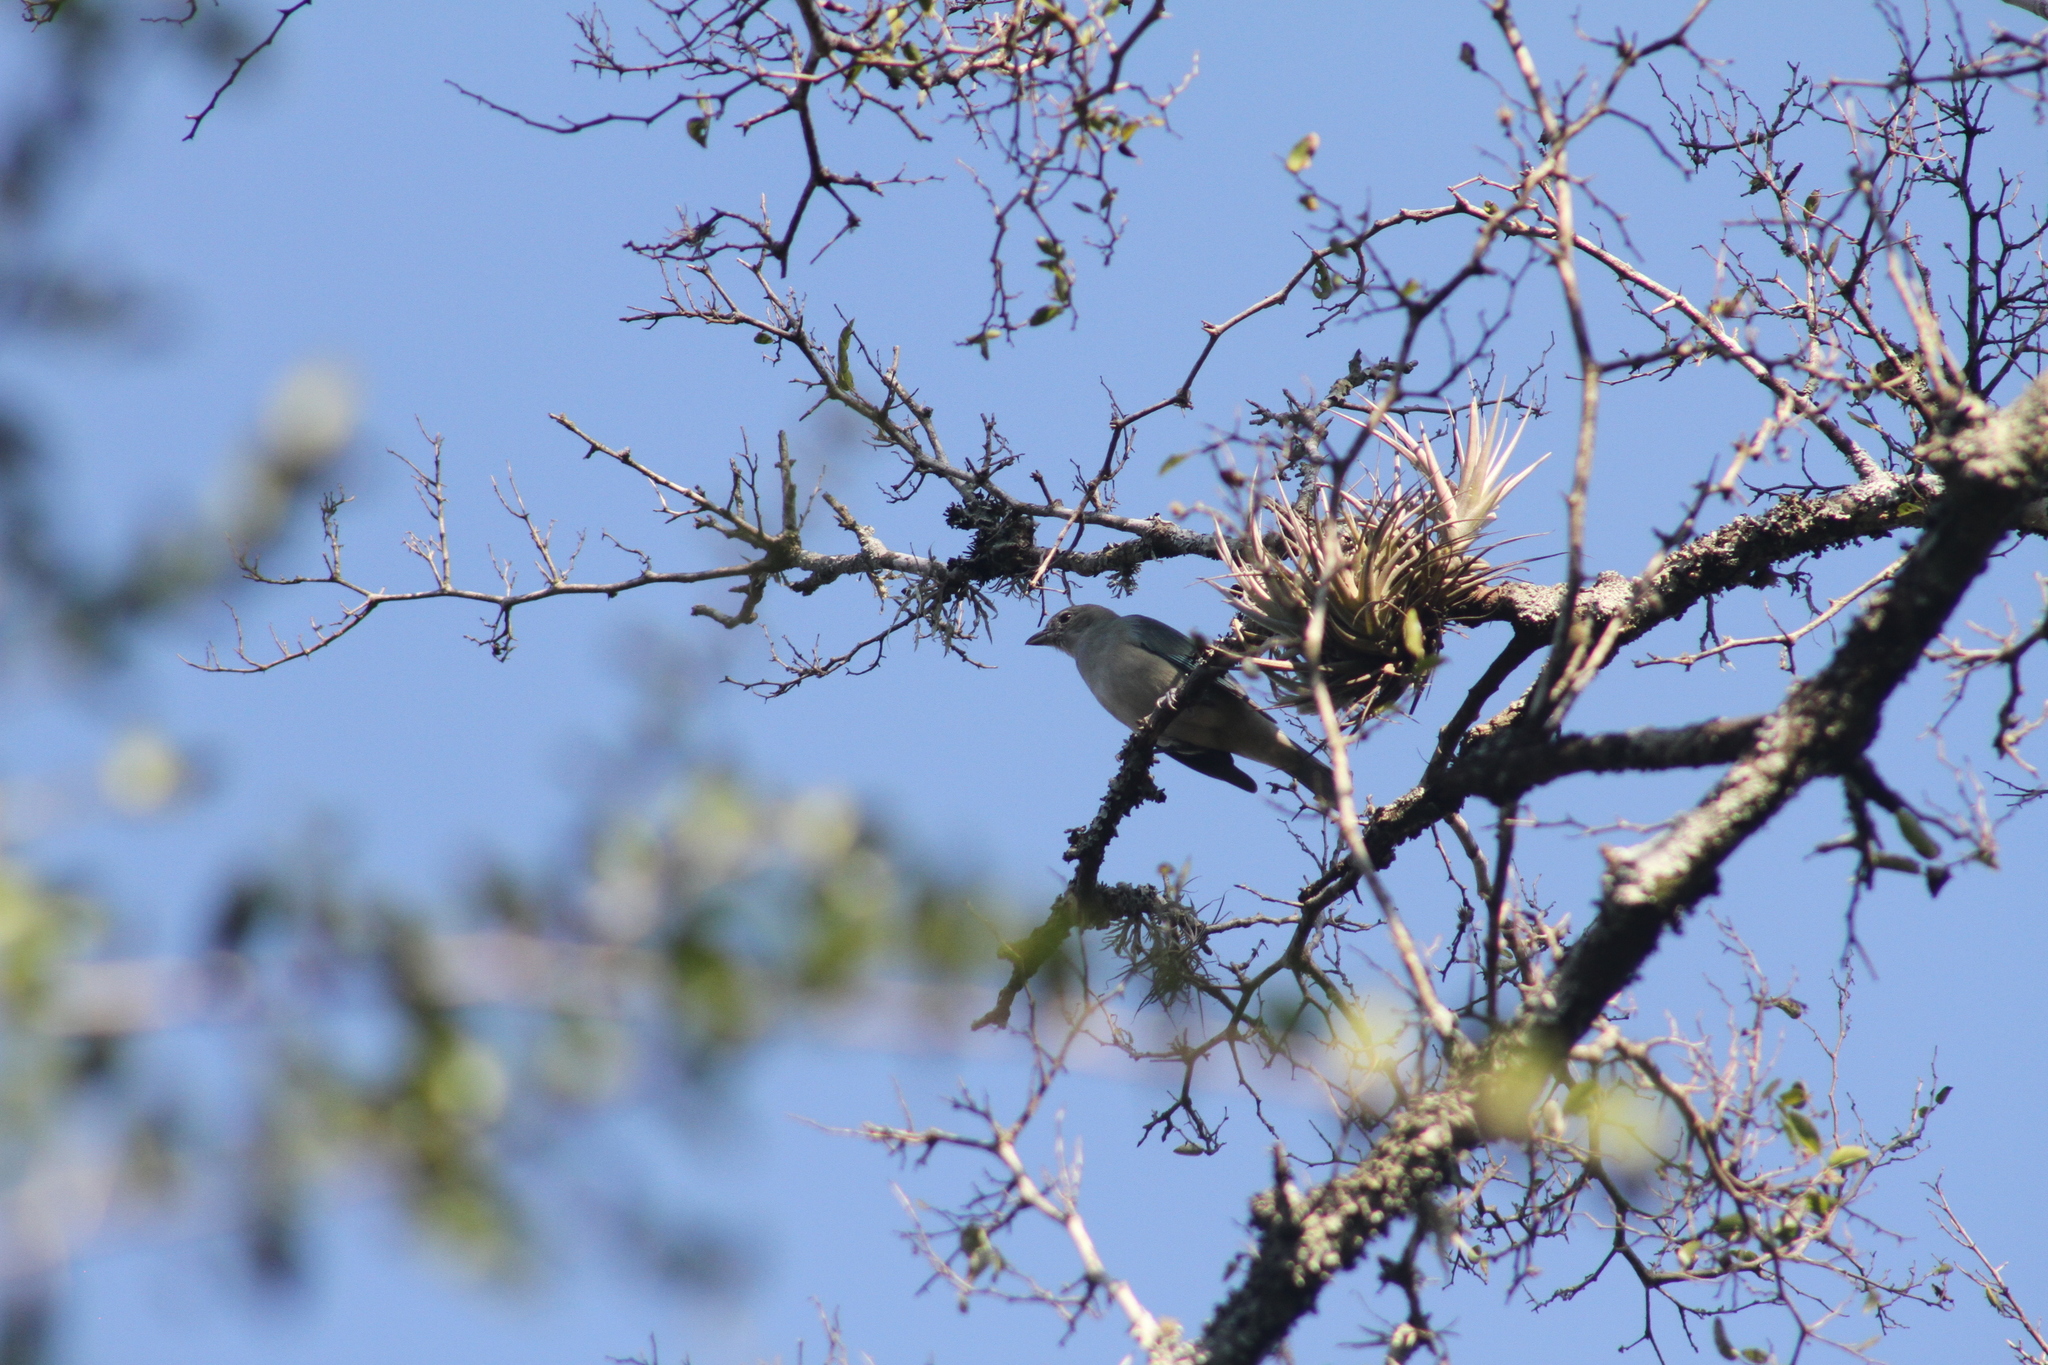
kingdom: Animalia
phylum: Chordata
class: Aves
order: Passeriformes
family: Thraupidae
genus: Thraupis
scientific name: Thraupis sayaca
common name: Sayaca tanager
